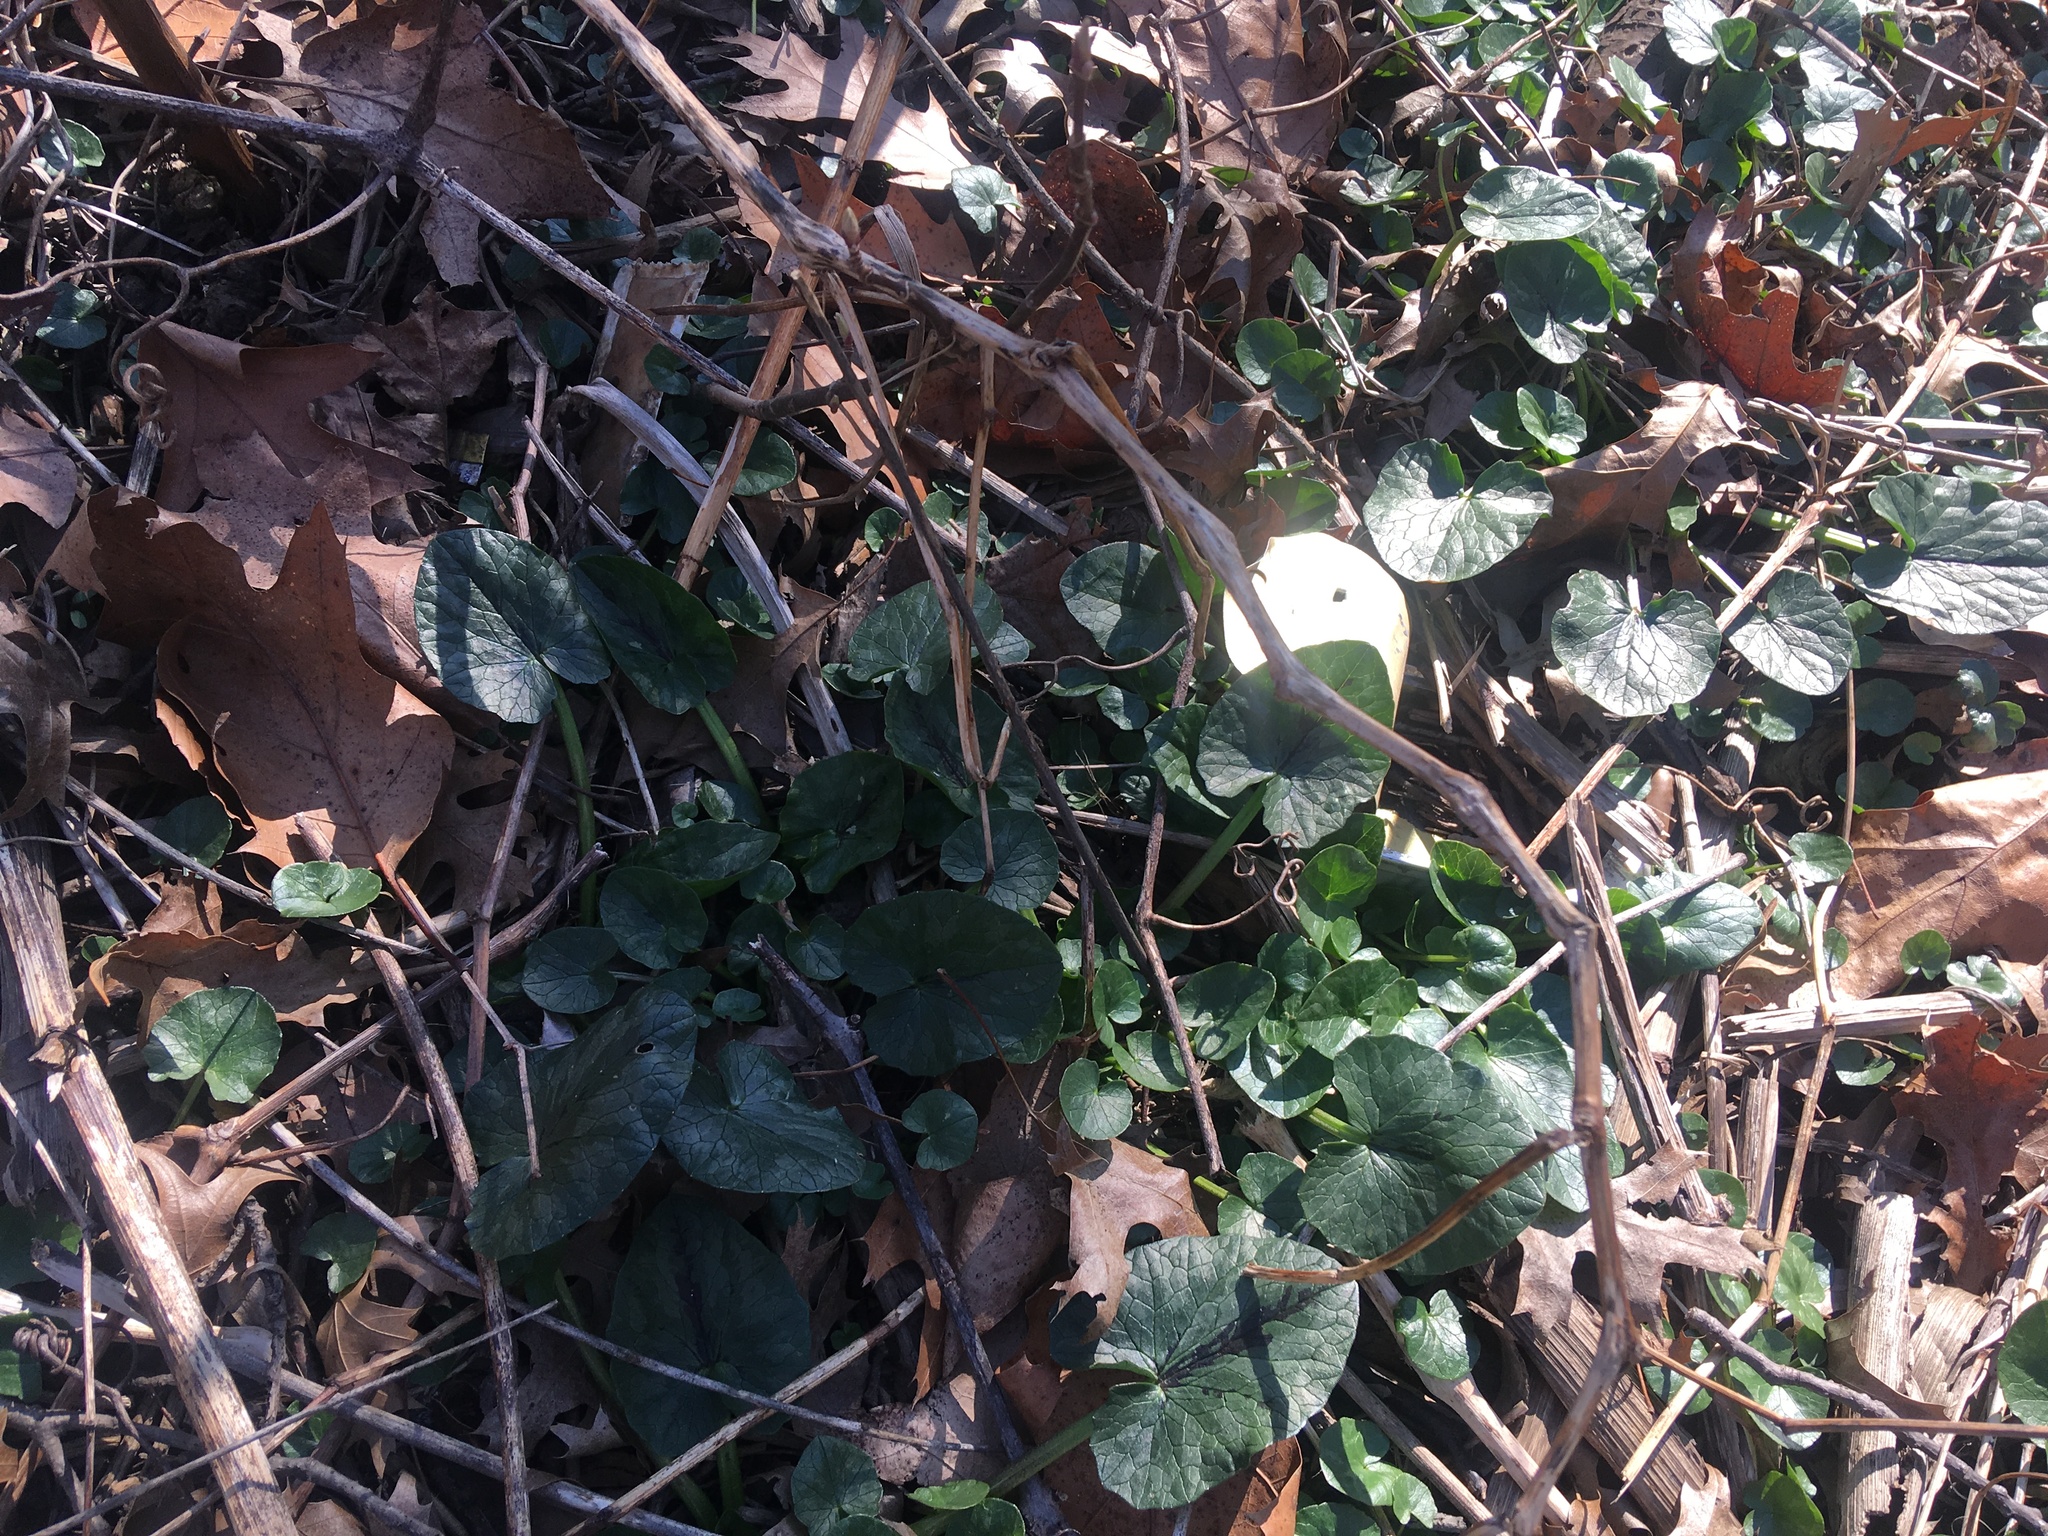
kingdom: Plantae
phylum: Tracheophyta
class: Magnoliopsida
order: Ranunculales
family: Ranunculaceae
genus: Ficaria
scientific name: Ficaria verna
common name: Lesser celandine
